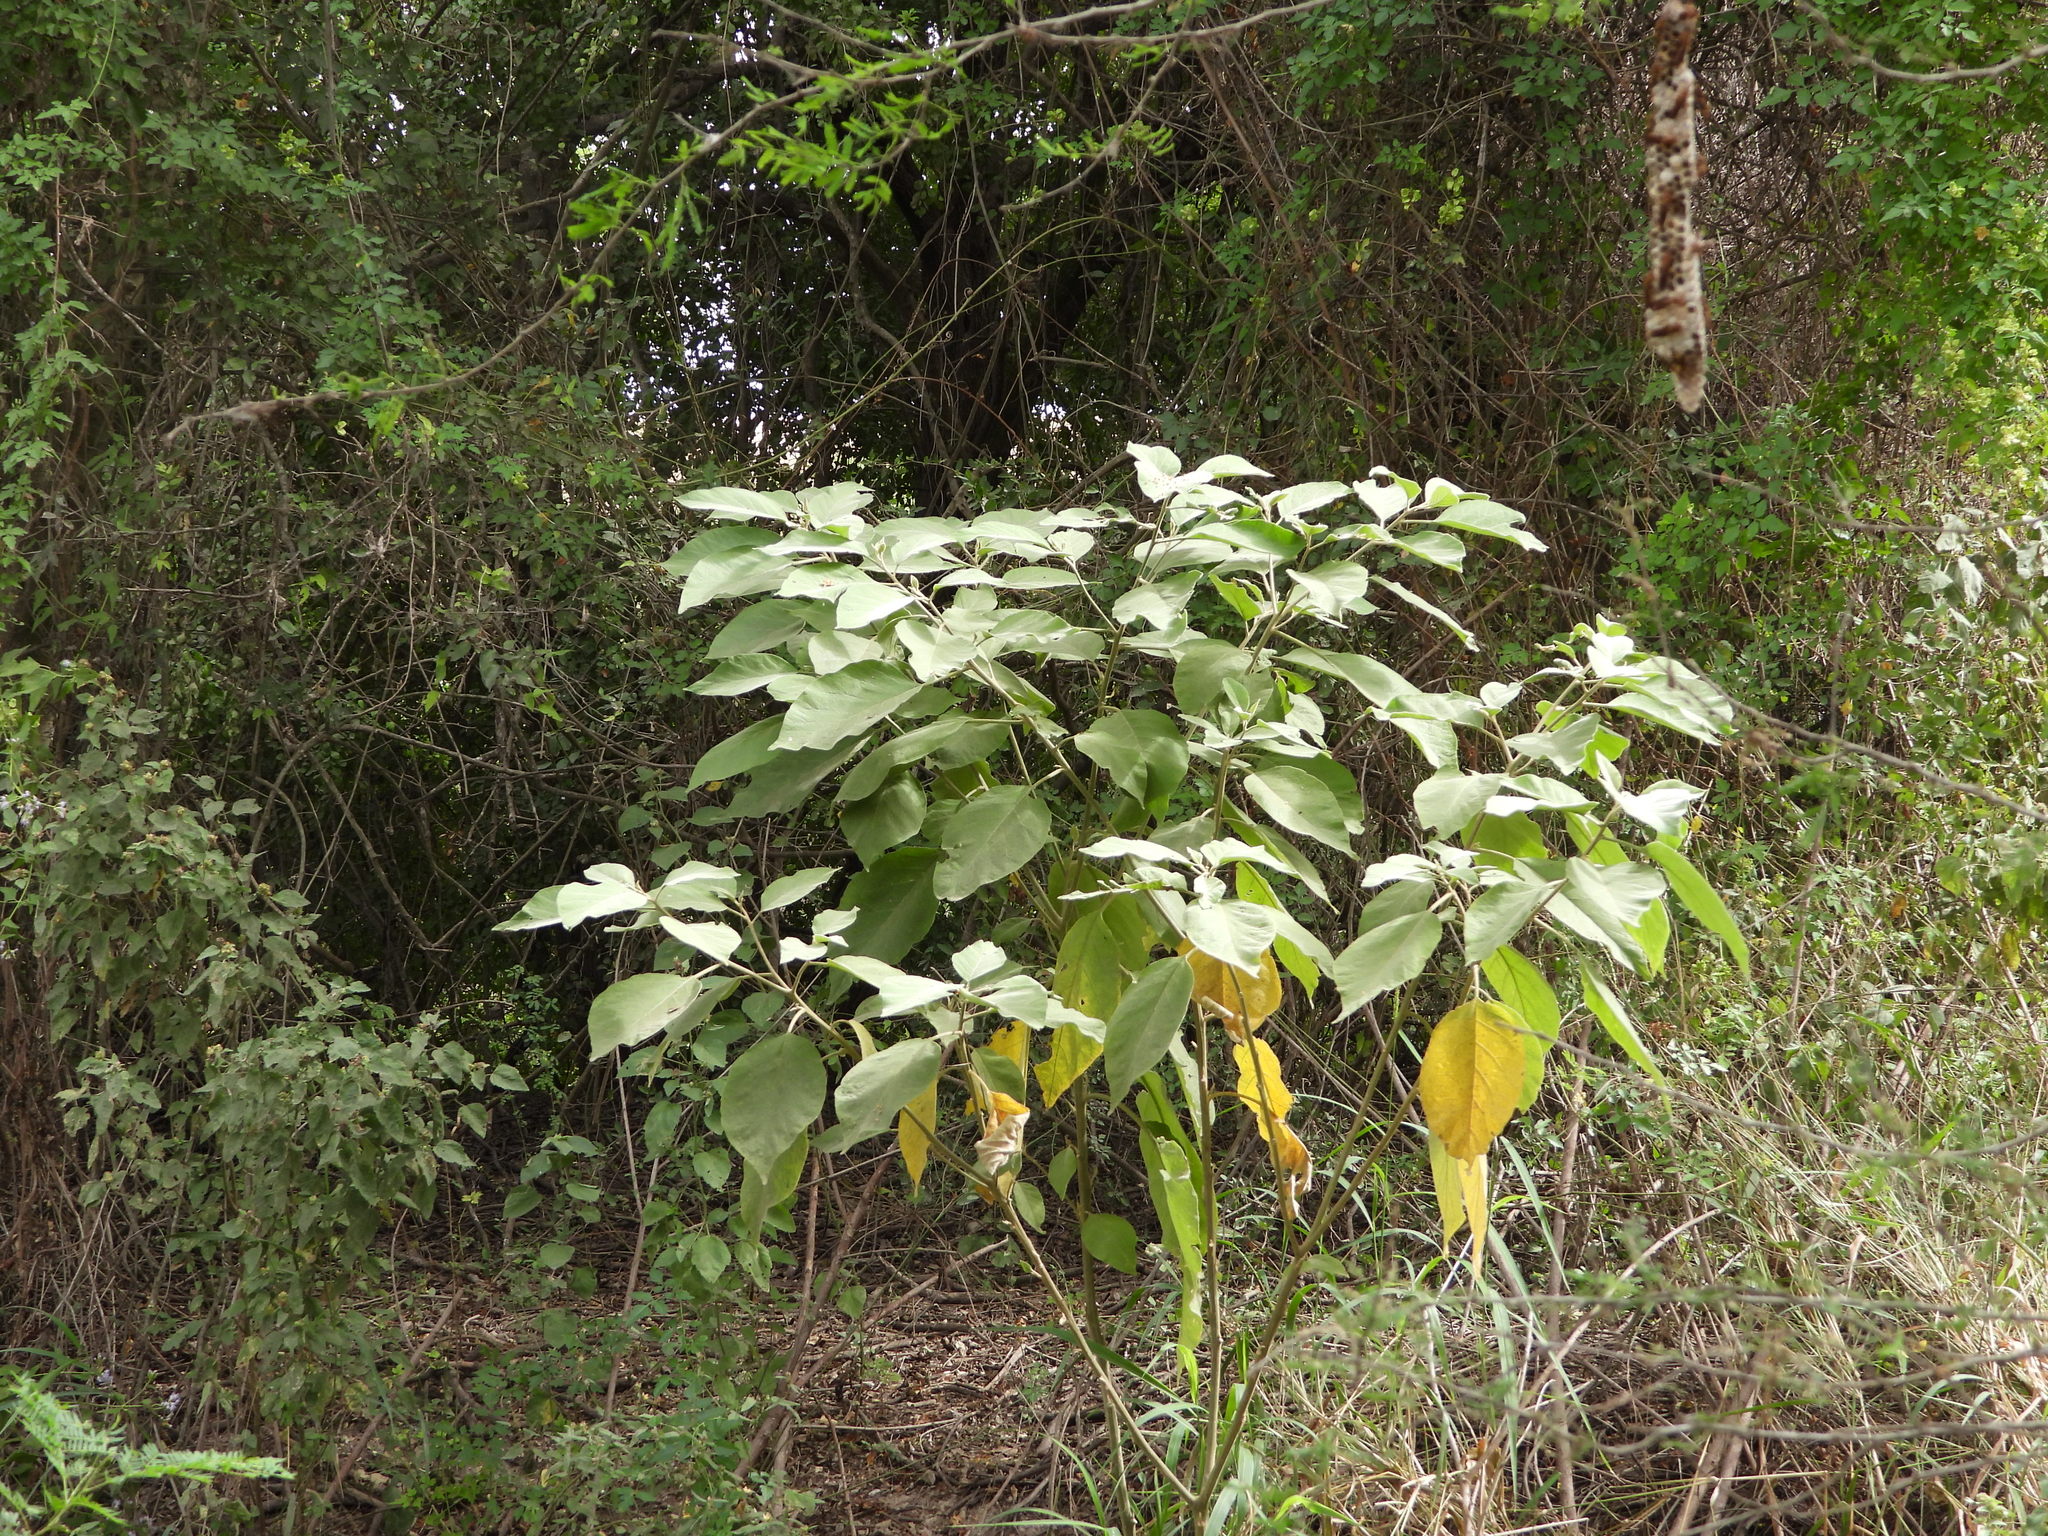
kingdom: Plantae
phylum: Tracheophyta
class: Magnoliopsida
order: Solanales
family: Solanaceae
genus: Solanum
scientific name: Solanum erianthum
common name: Tobacco-tree
